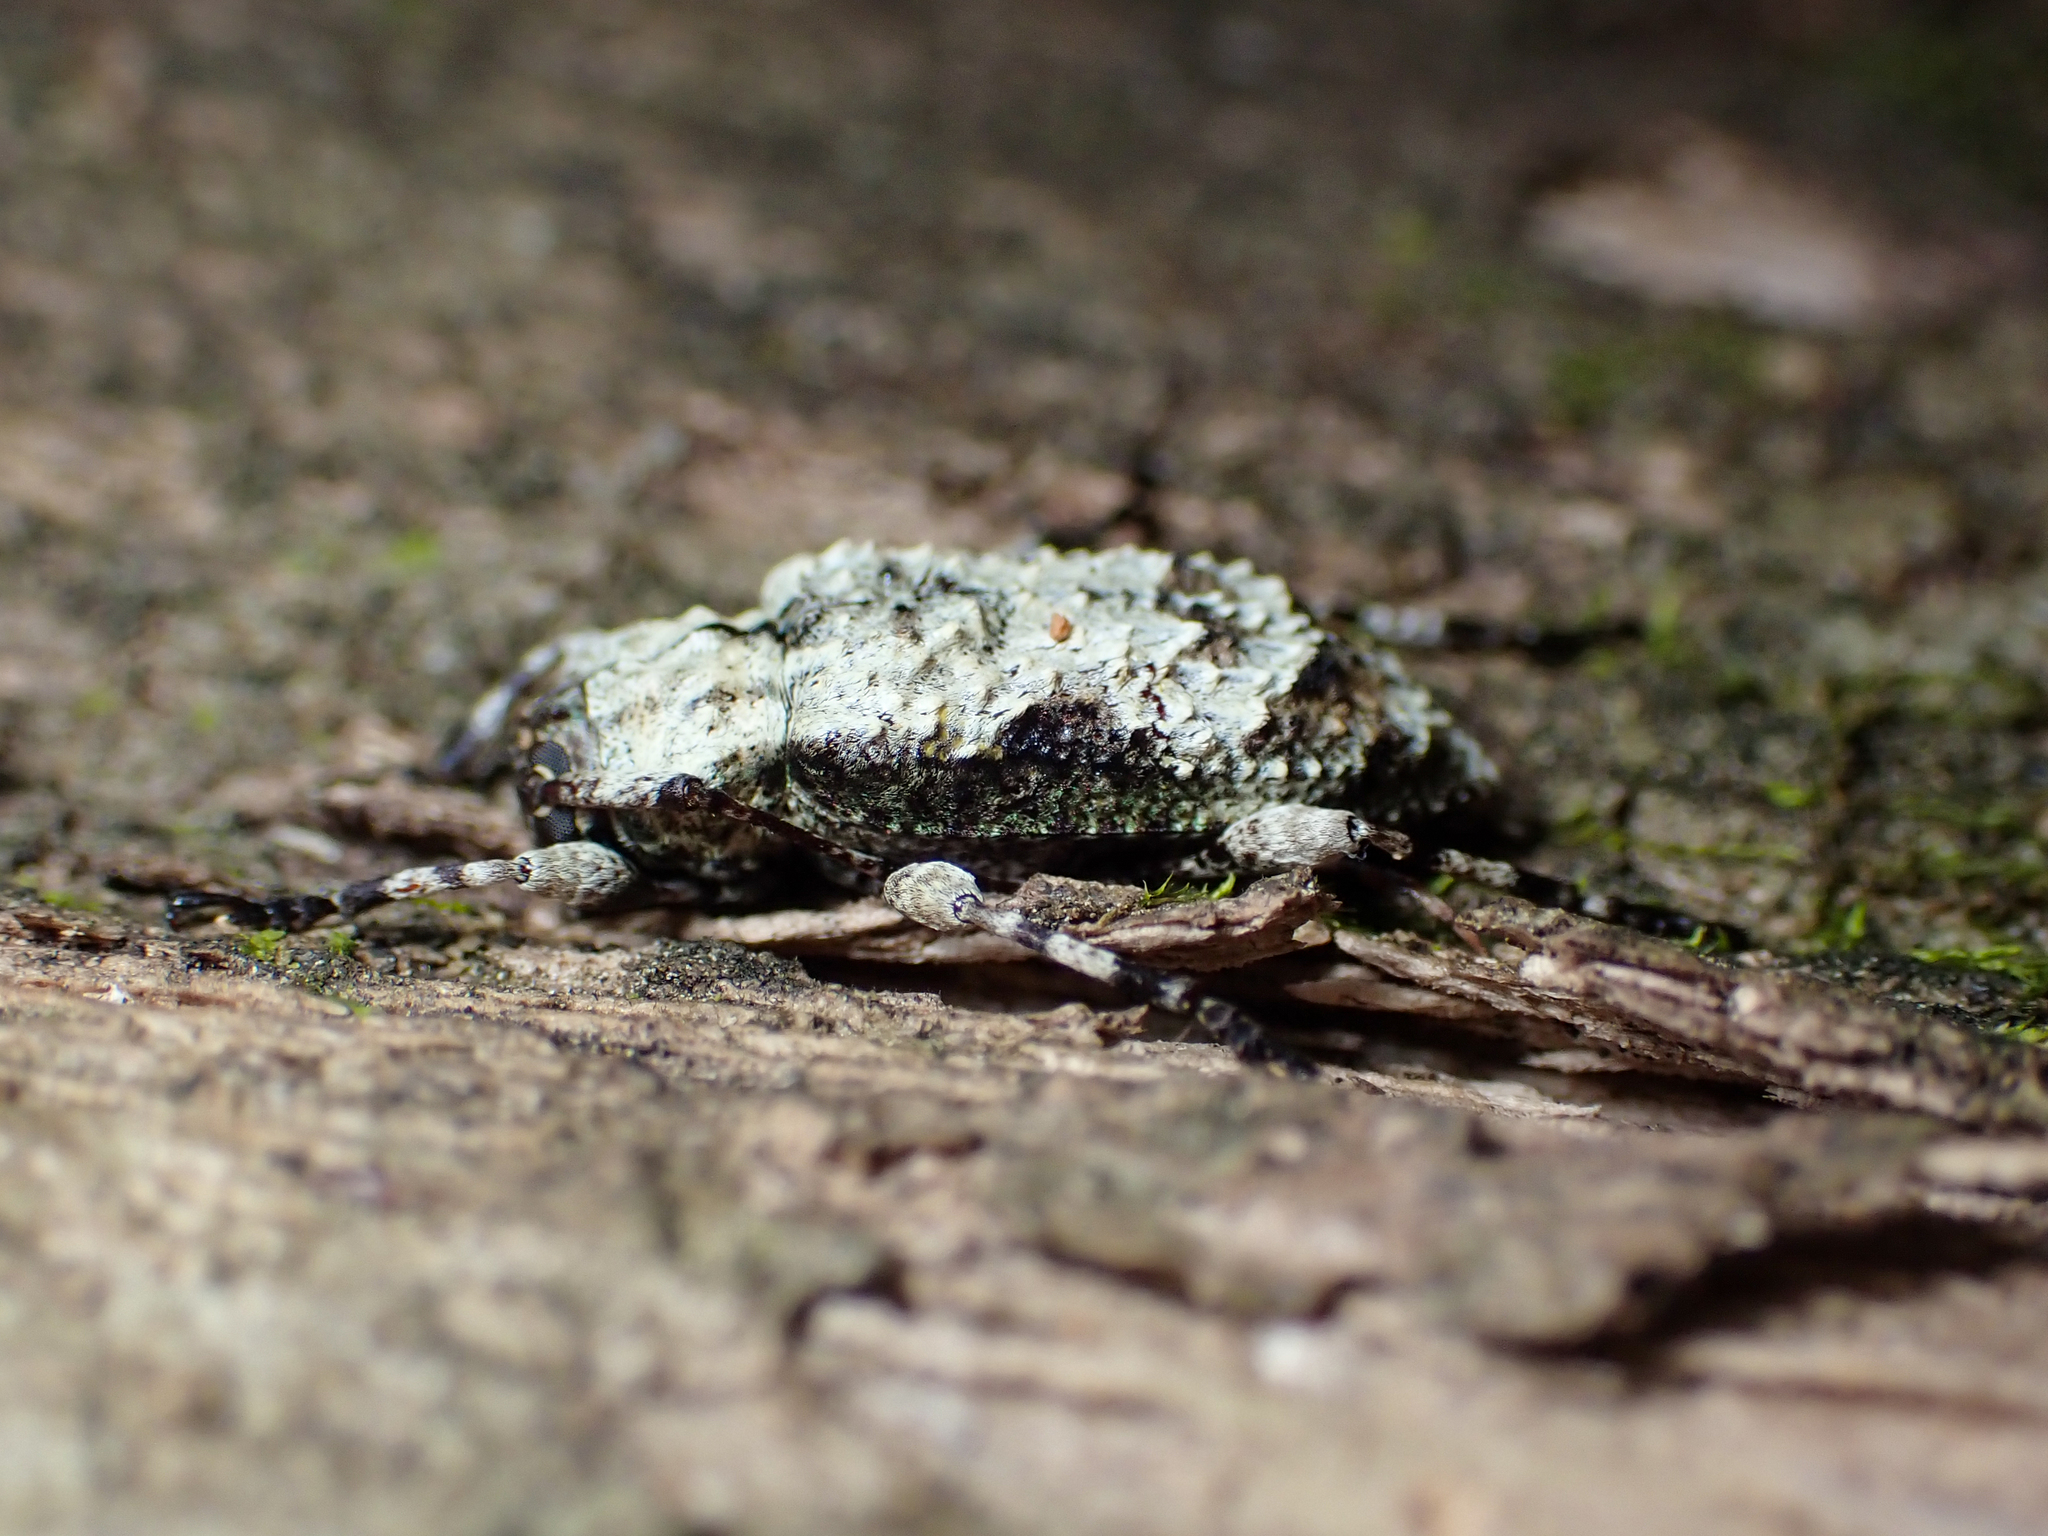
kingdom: Animalia
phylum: Arthropoda
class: Insecta
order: Coleoptera
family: Cerambycidae
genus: Leptostylus
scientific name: Leptostylus asperatus
